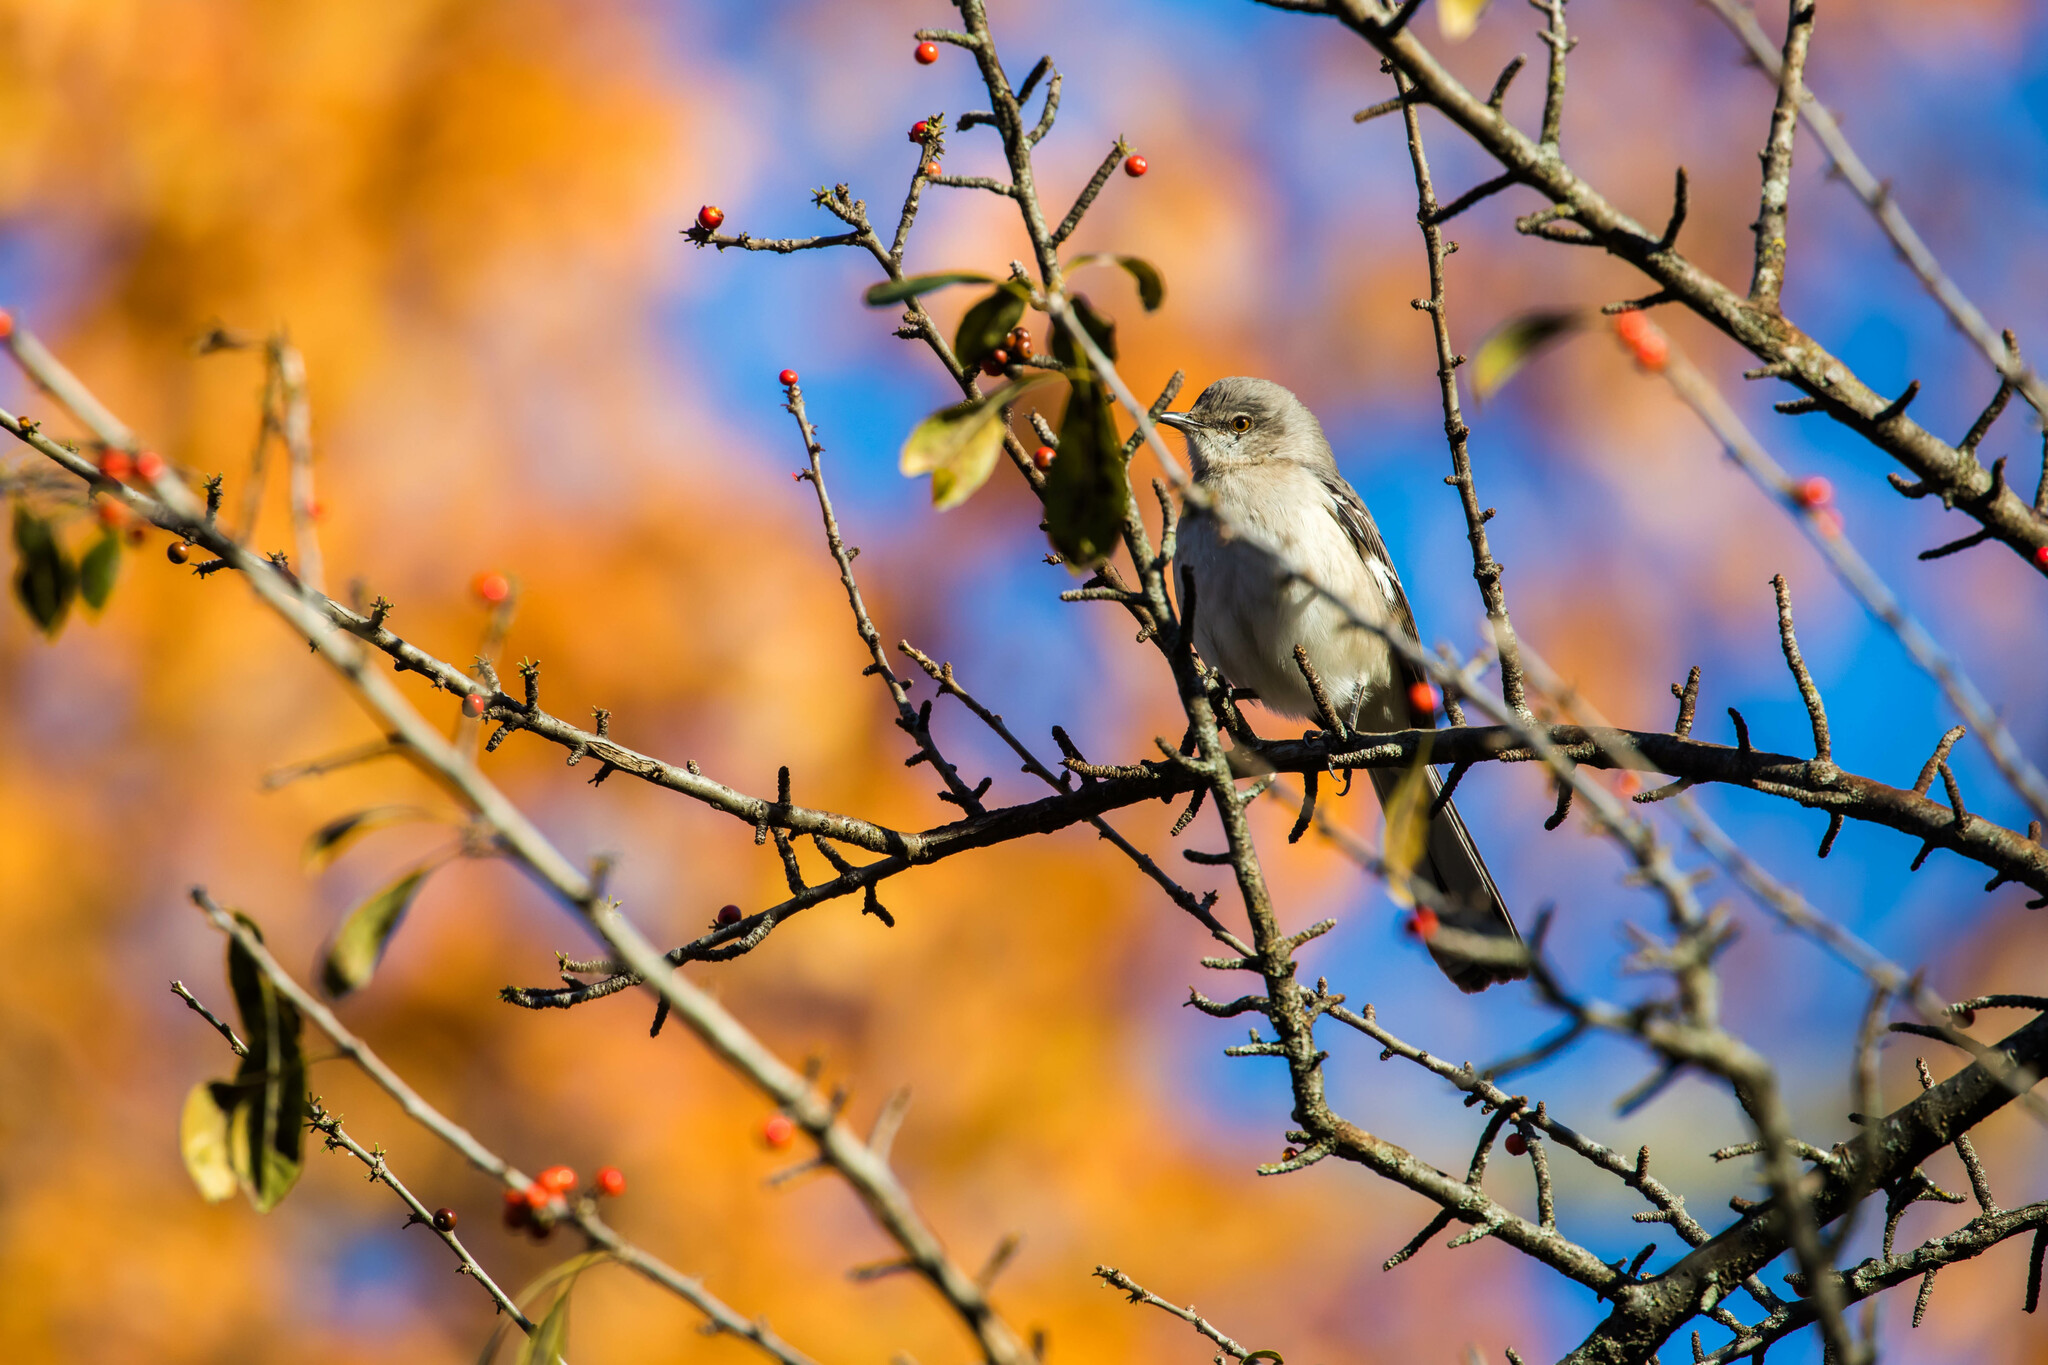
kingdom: Animalia
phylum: Chordata
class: Aves
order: Passeriformes
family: Mimidae
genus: Mimus
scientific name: Mimus polyglottos
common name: Northern mockingbird
